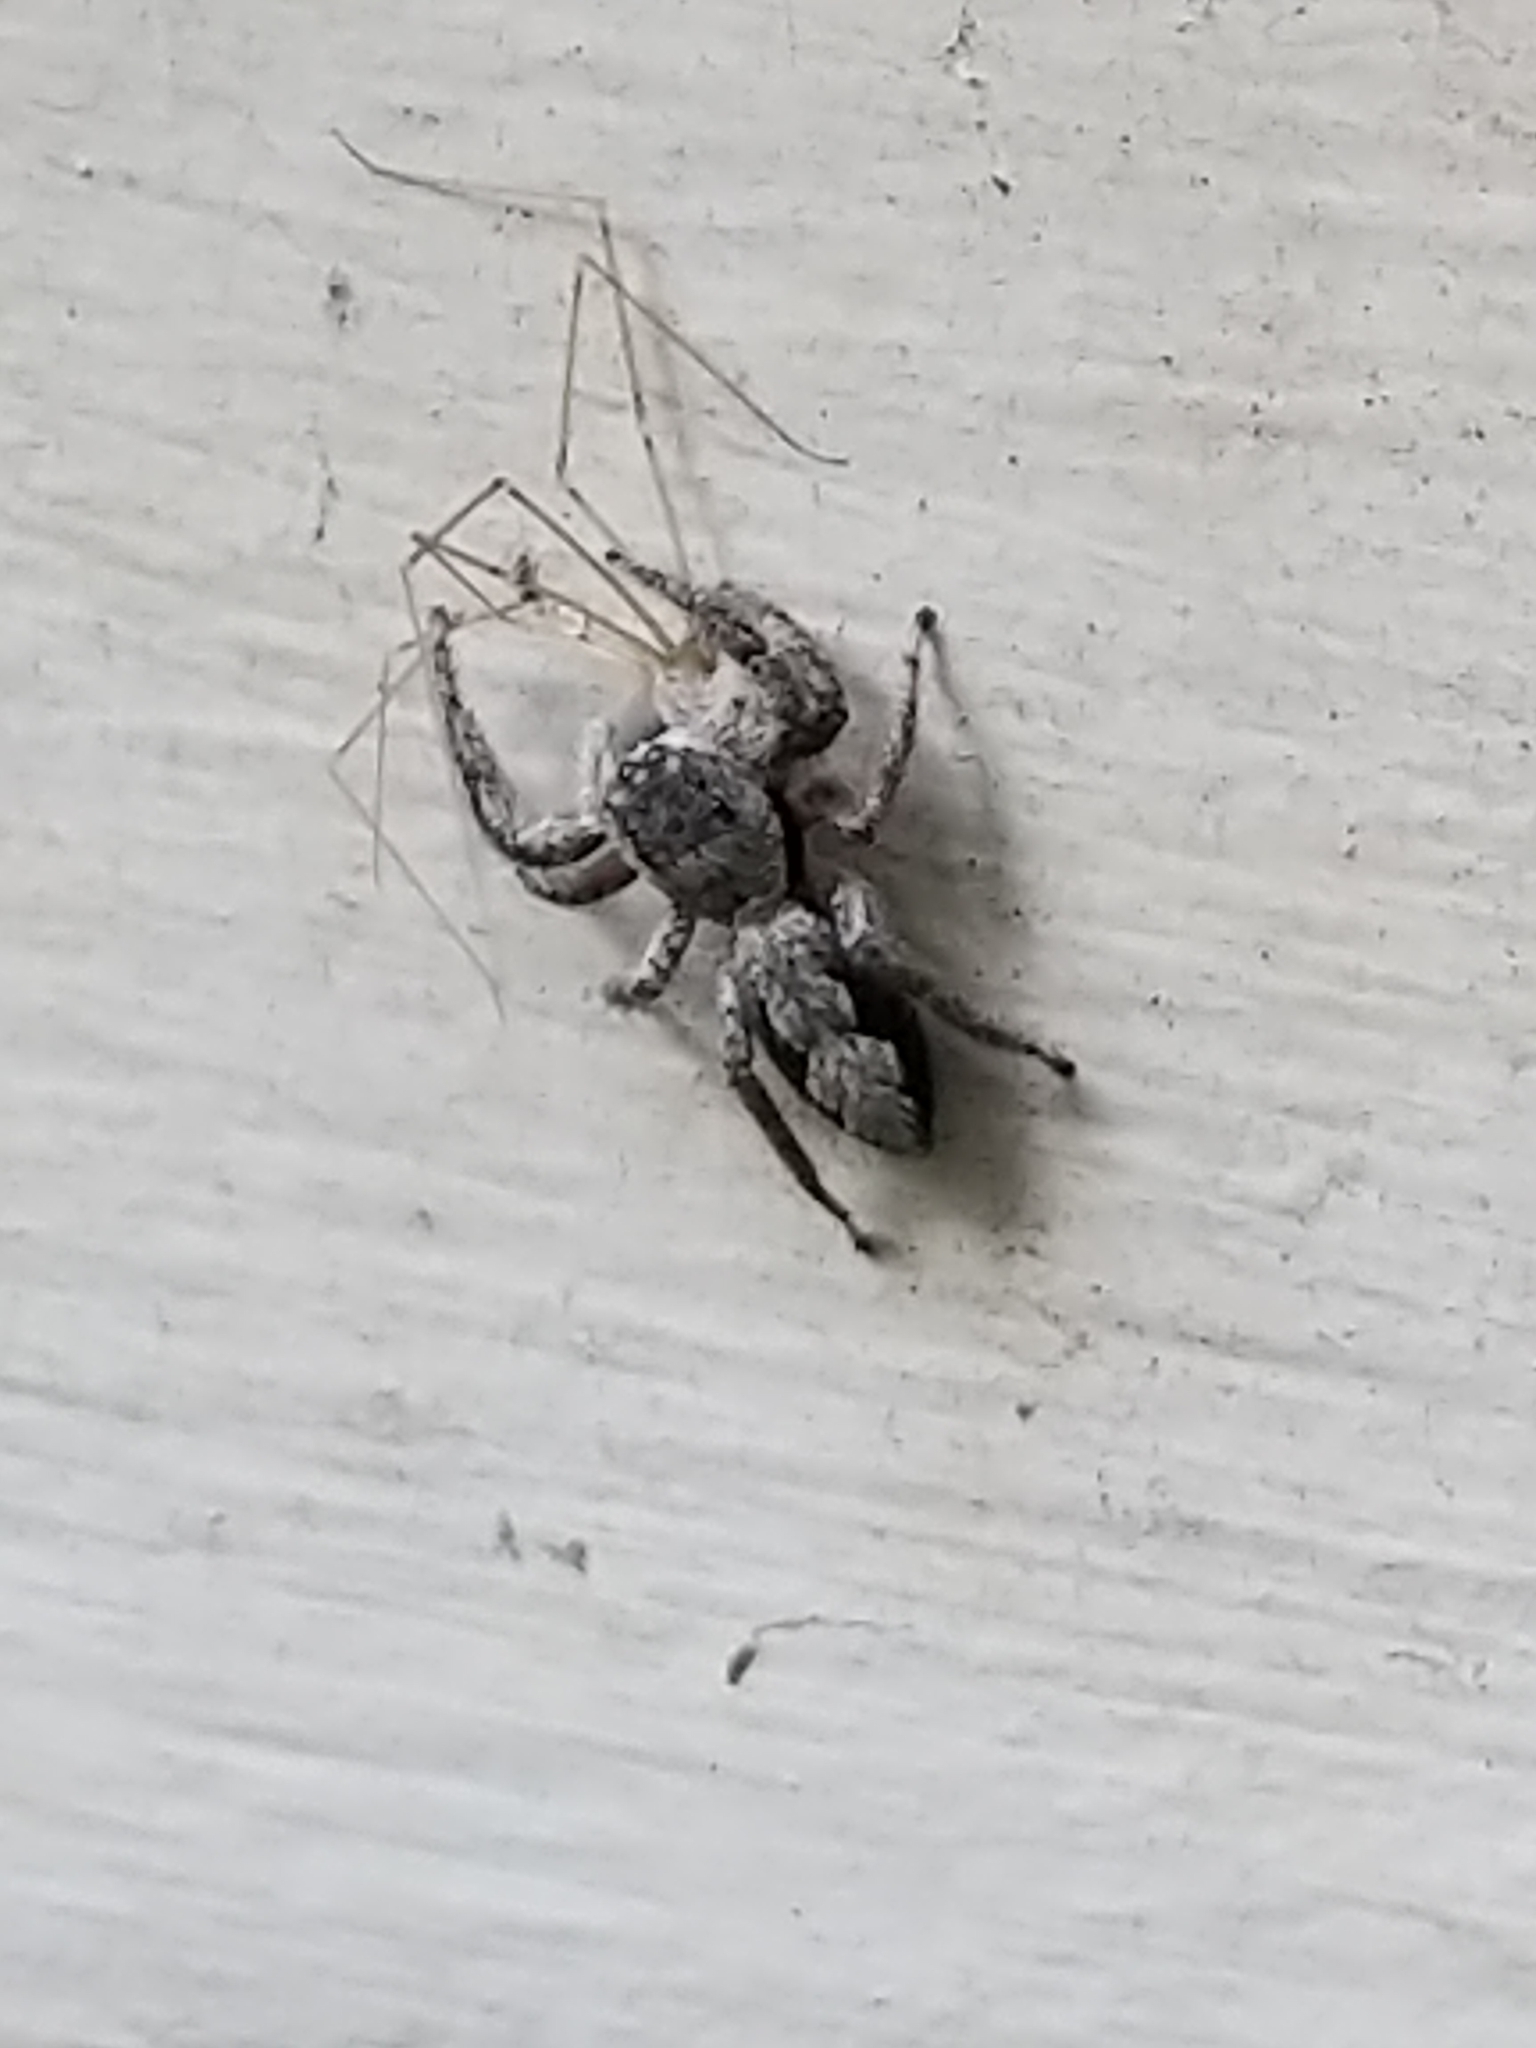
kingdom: Animalia
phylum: Arthropoda
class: Arachnida
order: Araneae
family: Salticidae
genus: Platycryptus
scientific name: Platycryptus undatus
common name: Tan jumping spider
